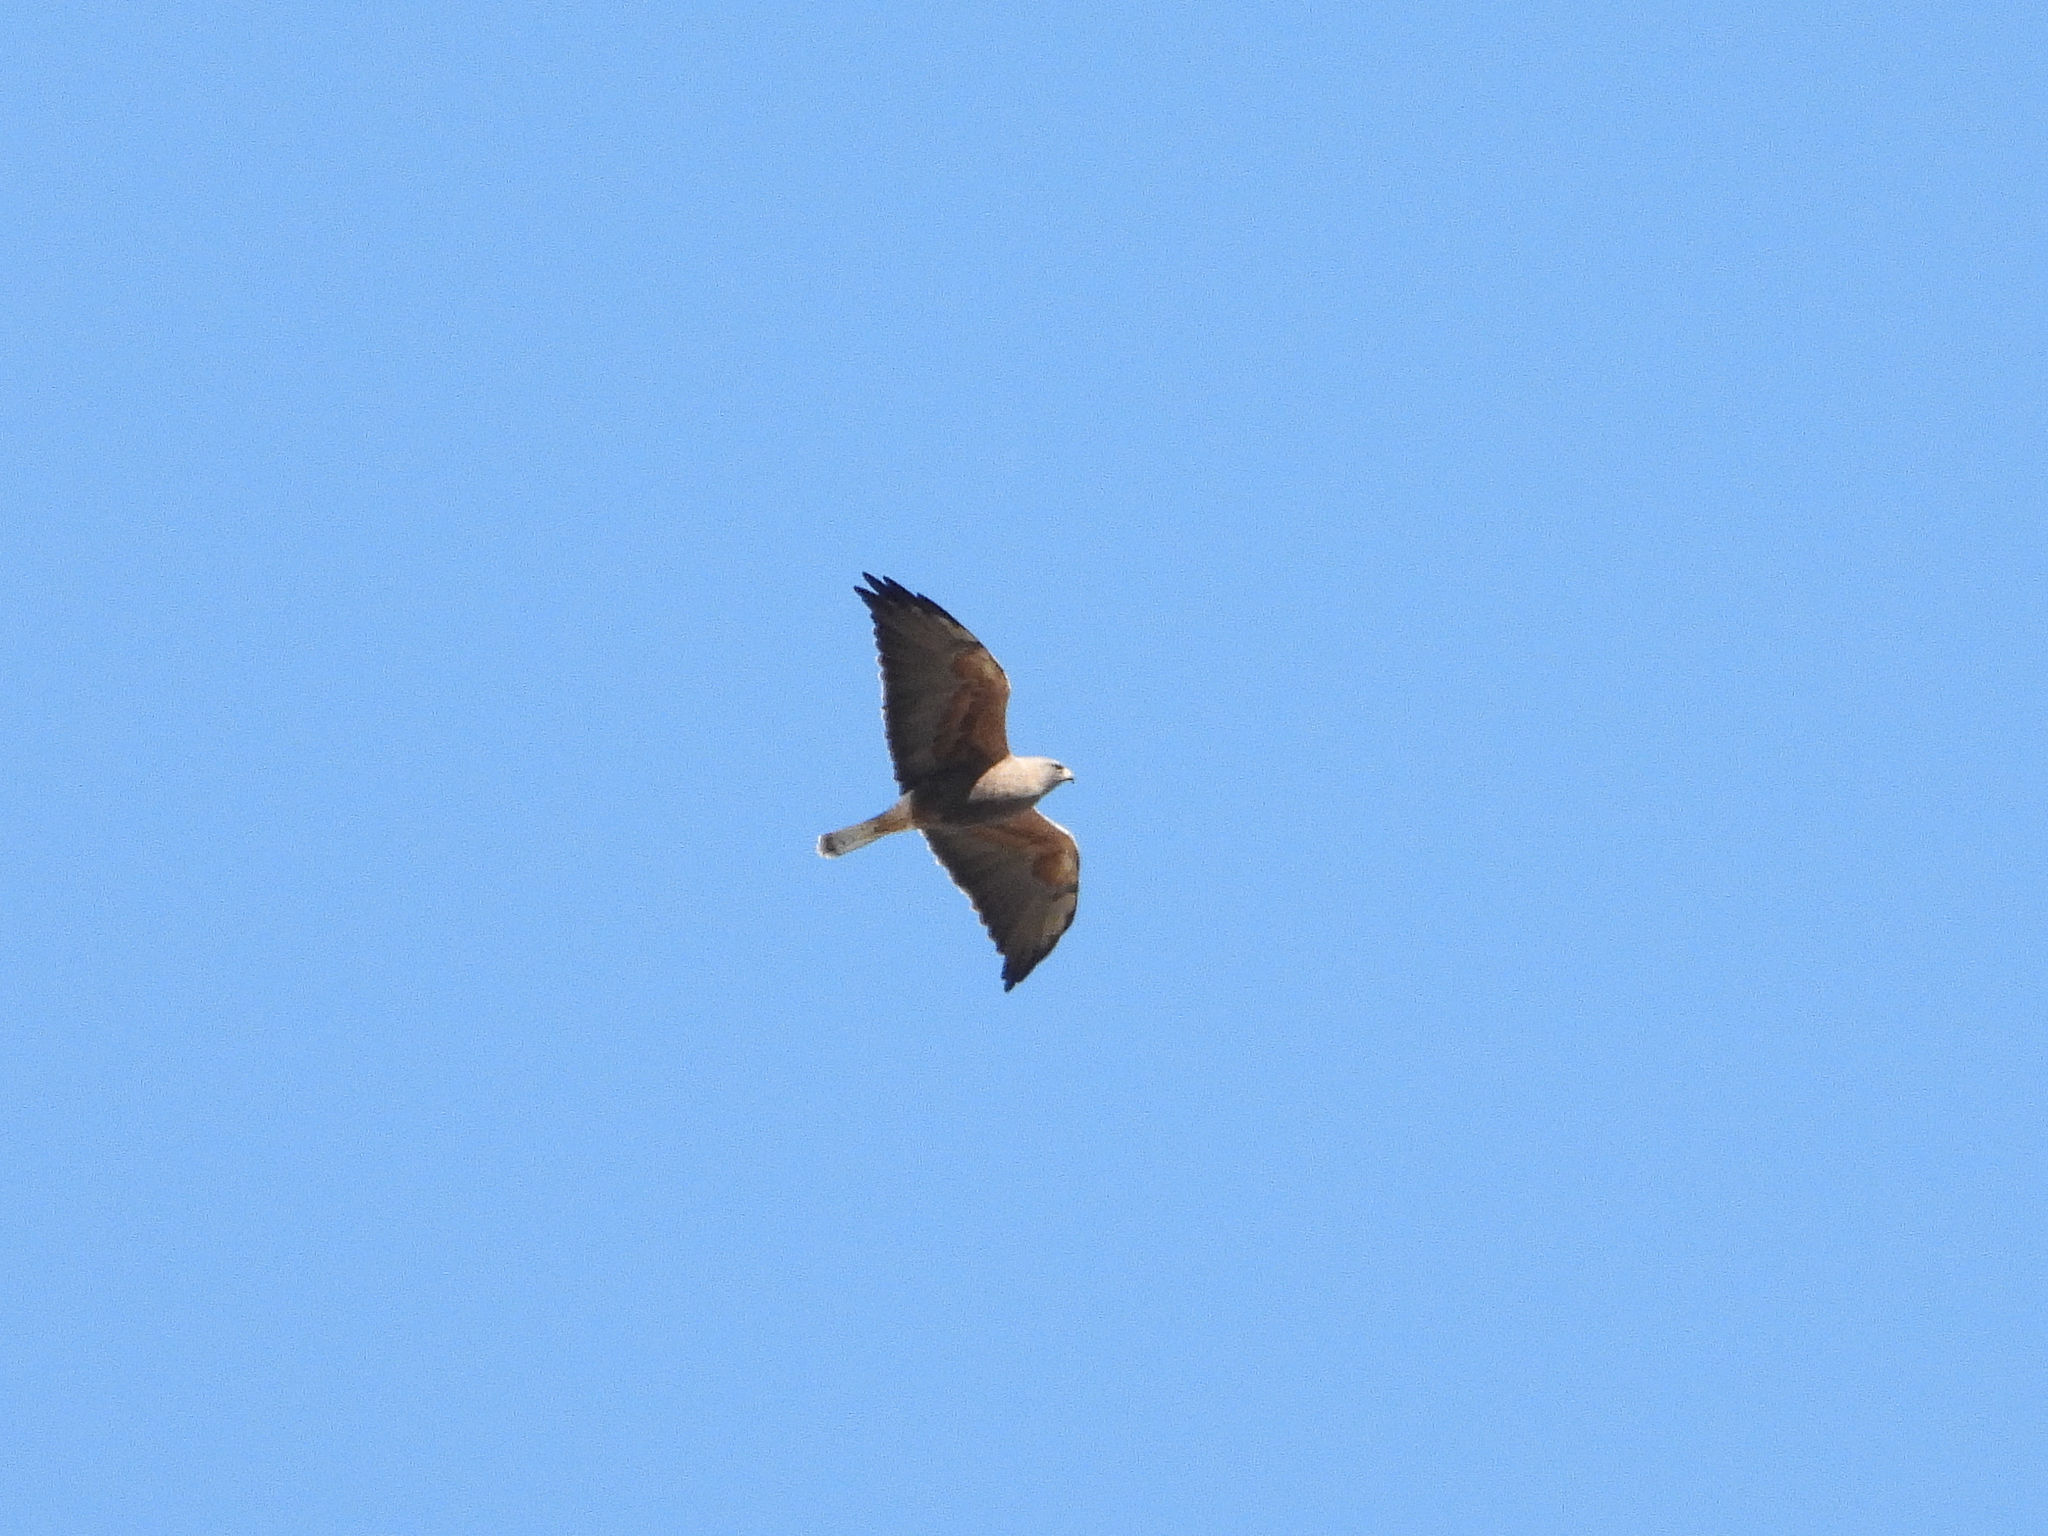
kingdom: Animalia
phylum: Chordata
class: Aves
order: Accipitriformes
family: Accipitridae
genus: Buteo
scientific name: Buteo swainsoni
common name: Swainson's hawk
